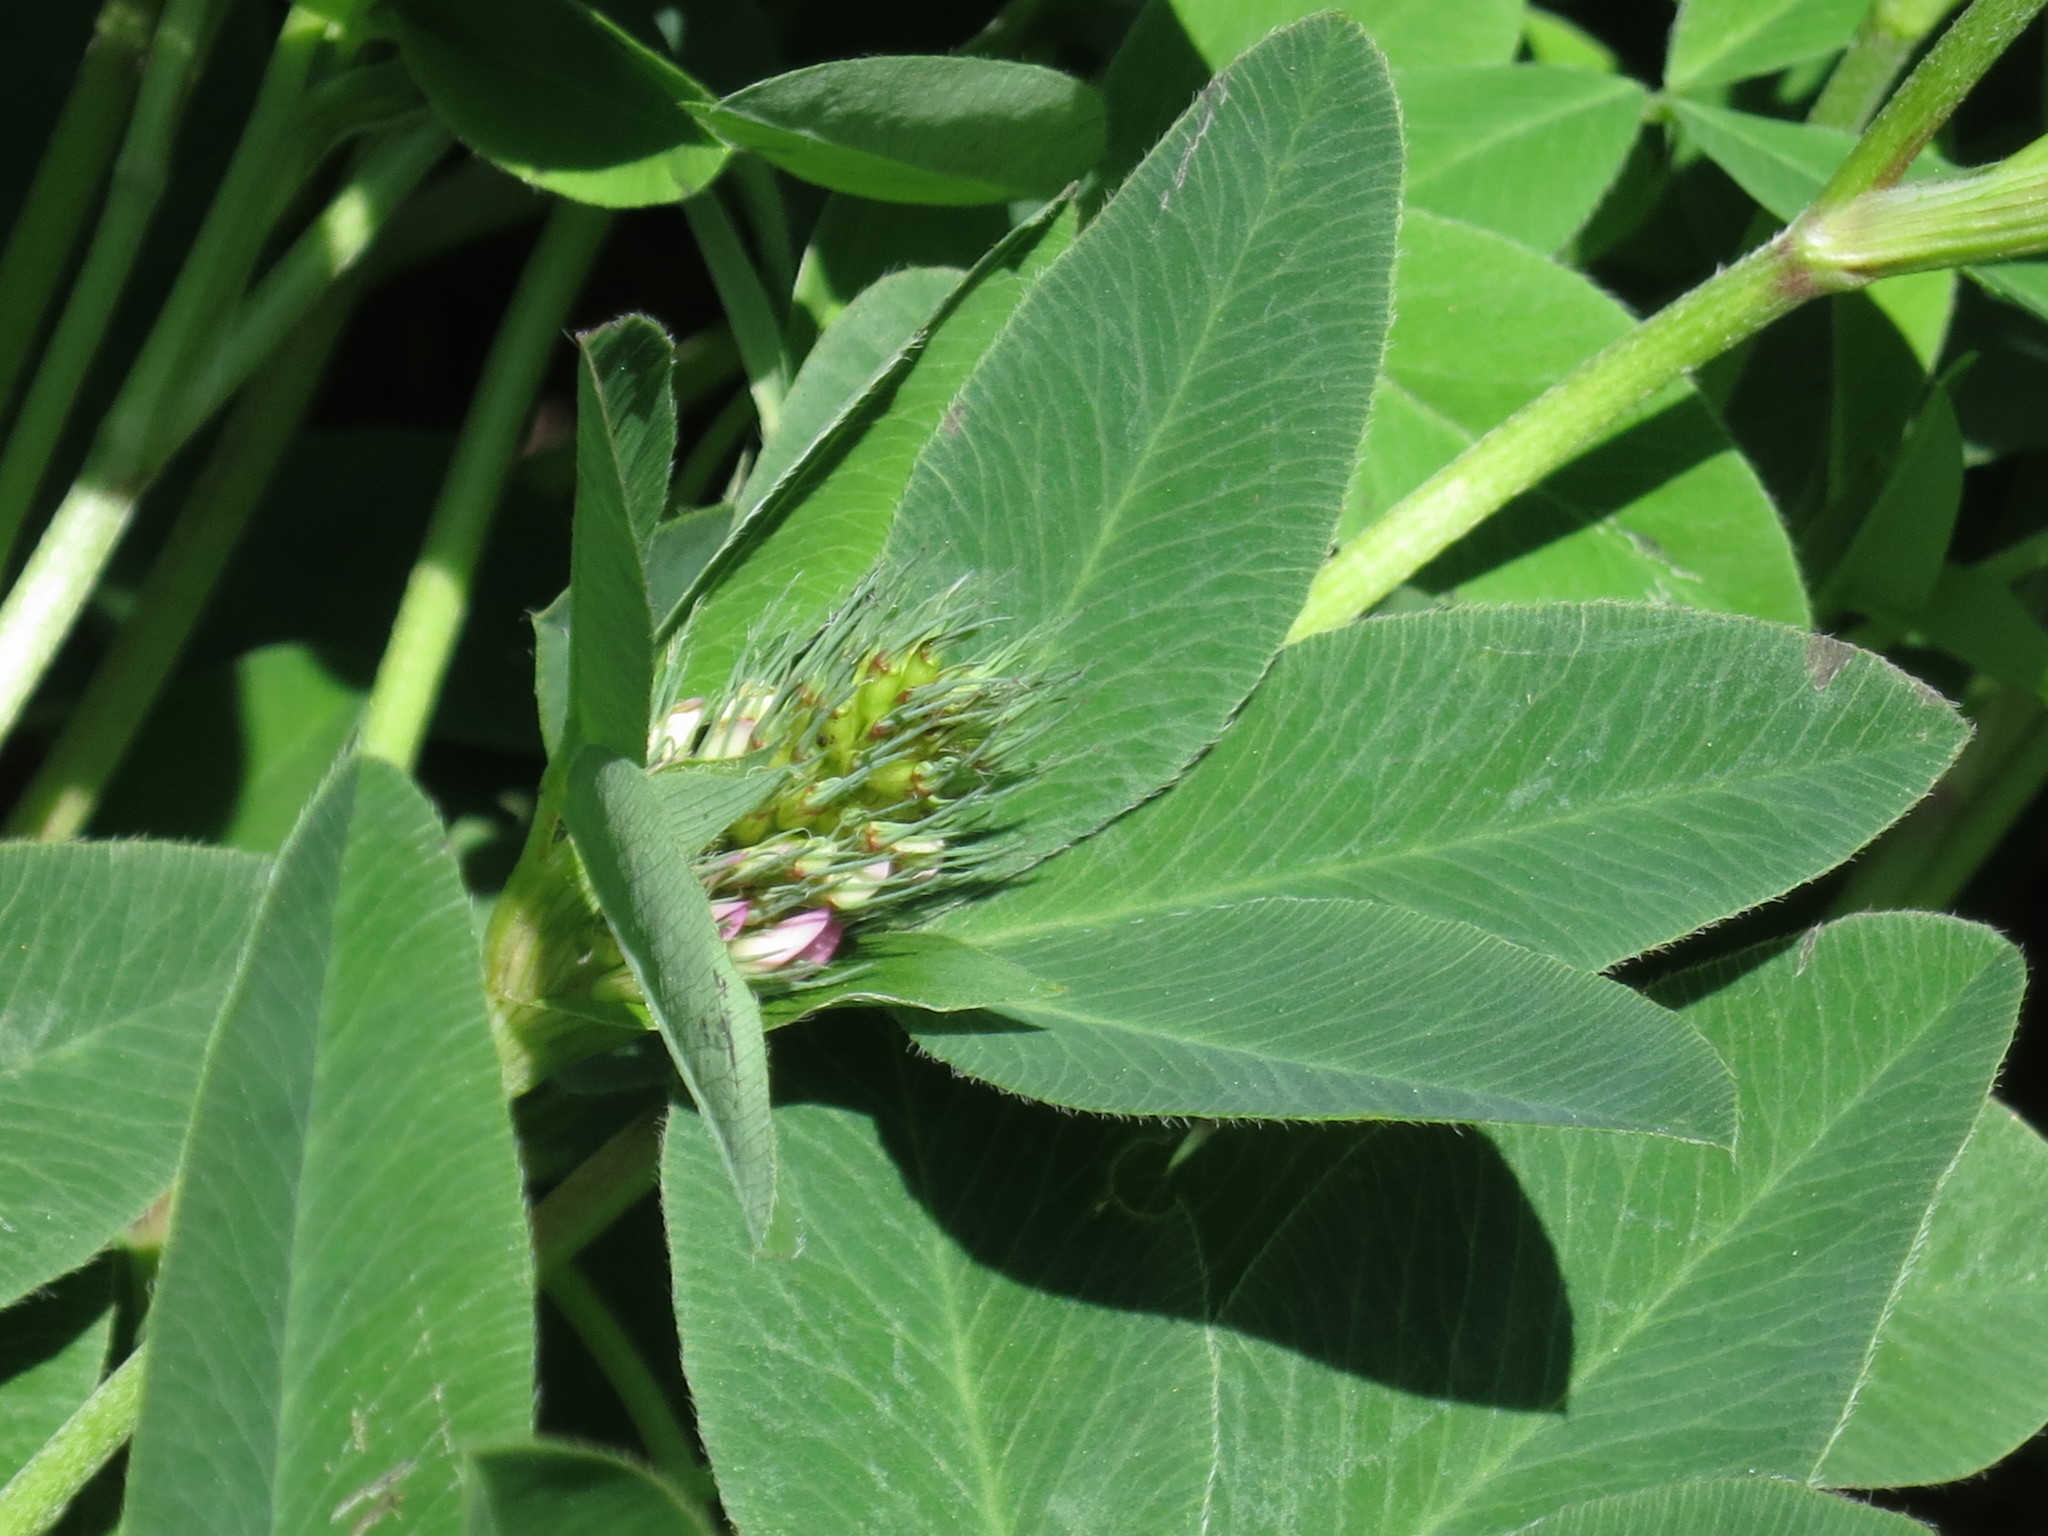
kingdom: Plantae
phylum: Tracheophyta
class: Magnoliopsida
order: Fabales
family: Fabaceae
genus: Trifolium
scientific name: Trifolium pratense
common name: Red clover
